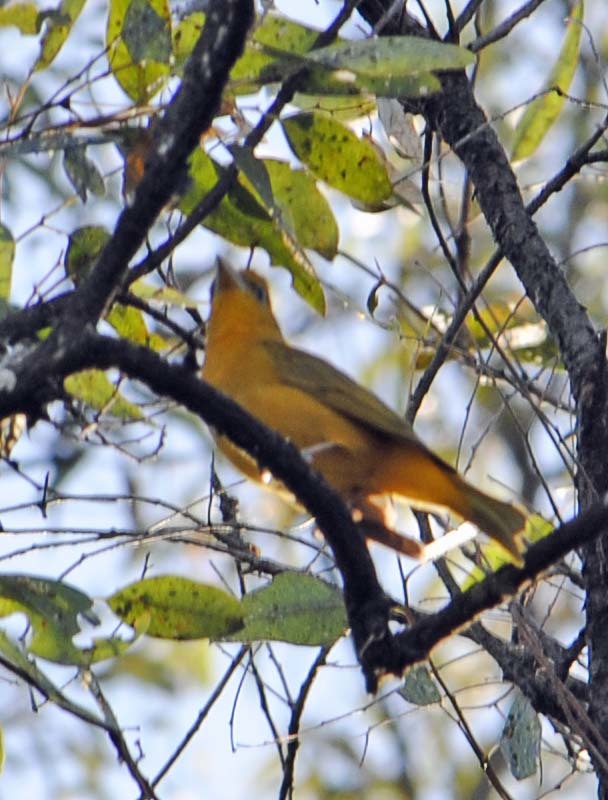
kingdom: Animalia
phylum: Chordata
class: Aves
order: Passeriformes
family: Cardinalidae
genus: Piranga
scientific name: Piranga rubra
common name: Summer tanager
